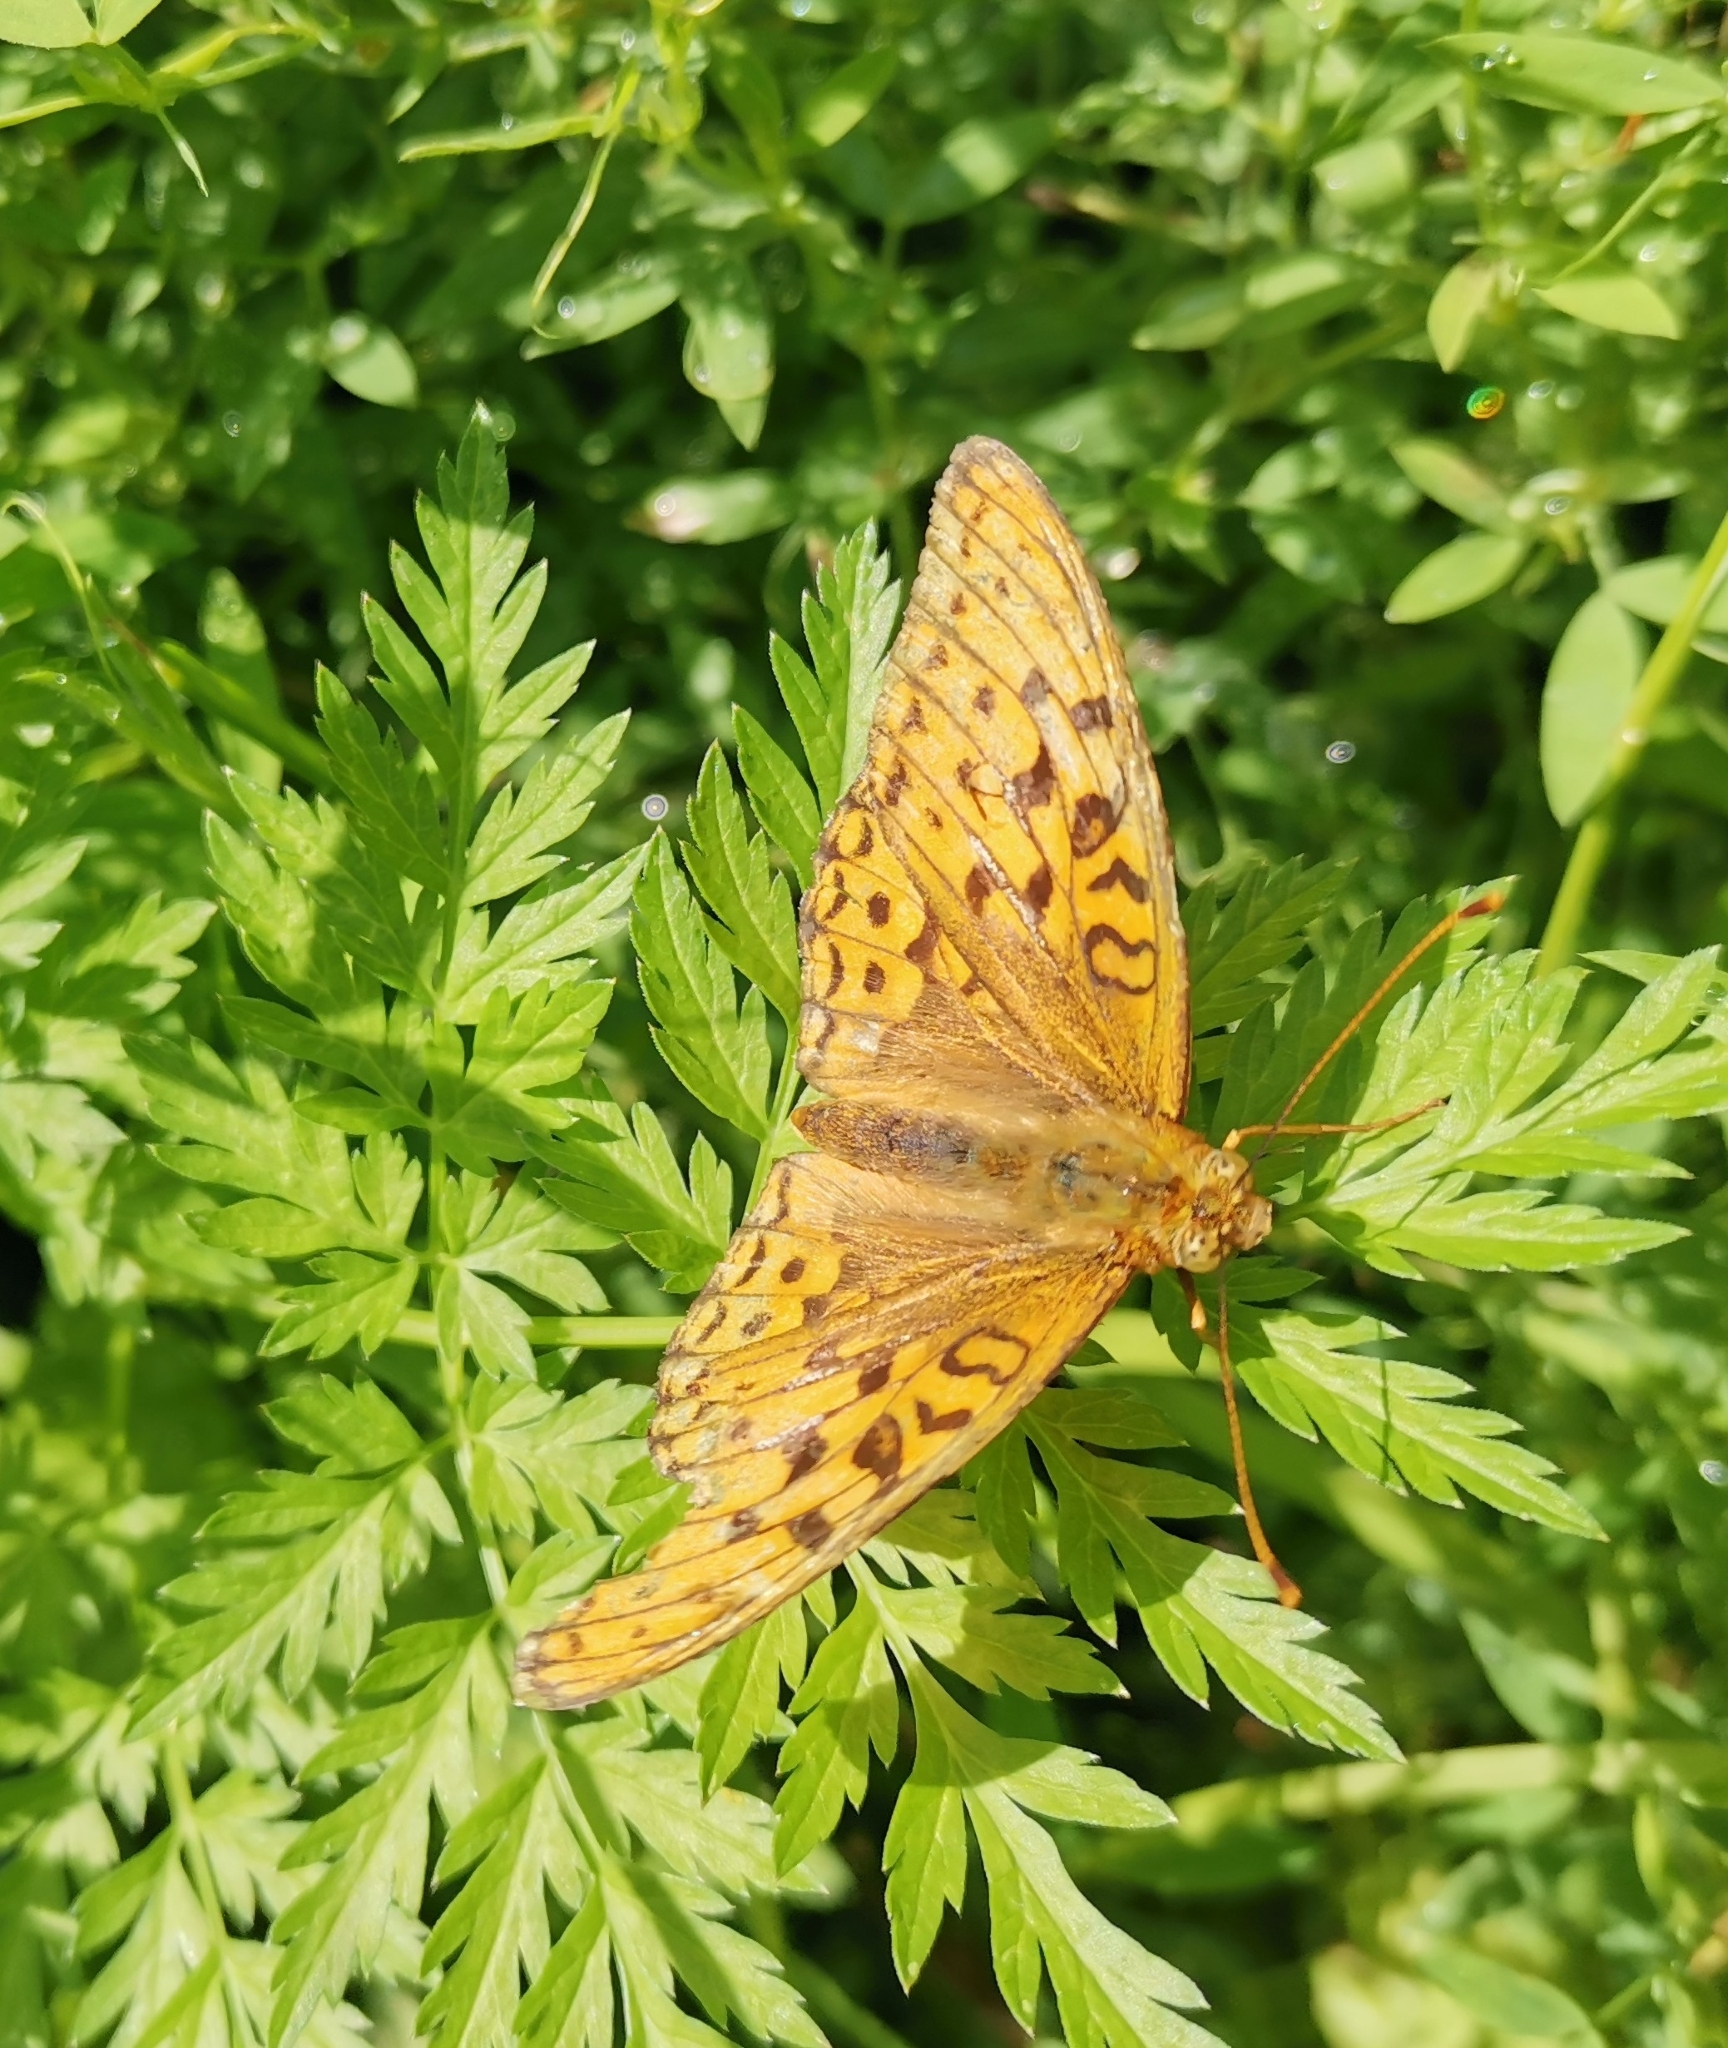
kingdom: Animalia
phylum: Arthropoda
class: Insecta
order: Lepidoptera
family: Nymphalidae
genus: Fabriciana
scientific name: Fabriciana adippe
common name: High brown fritillary
